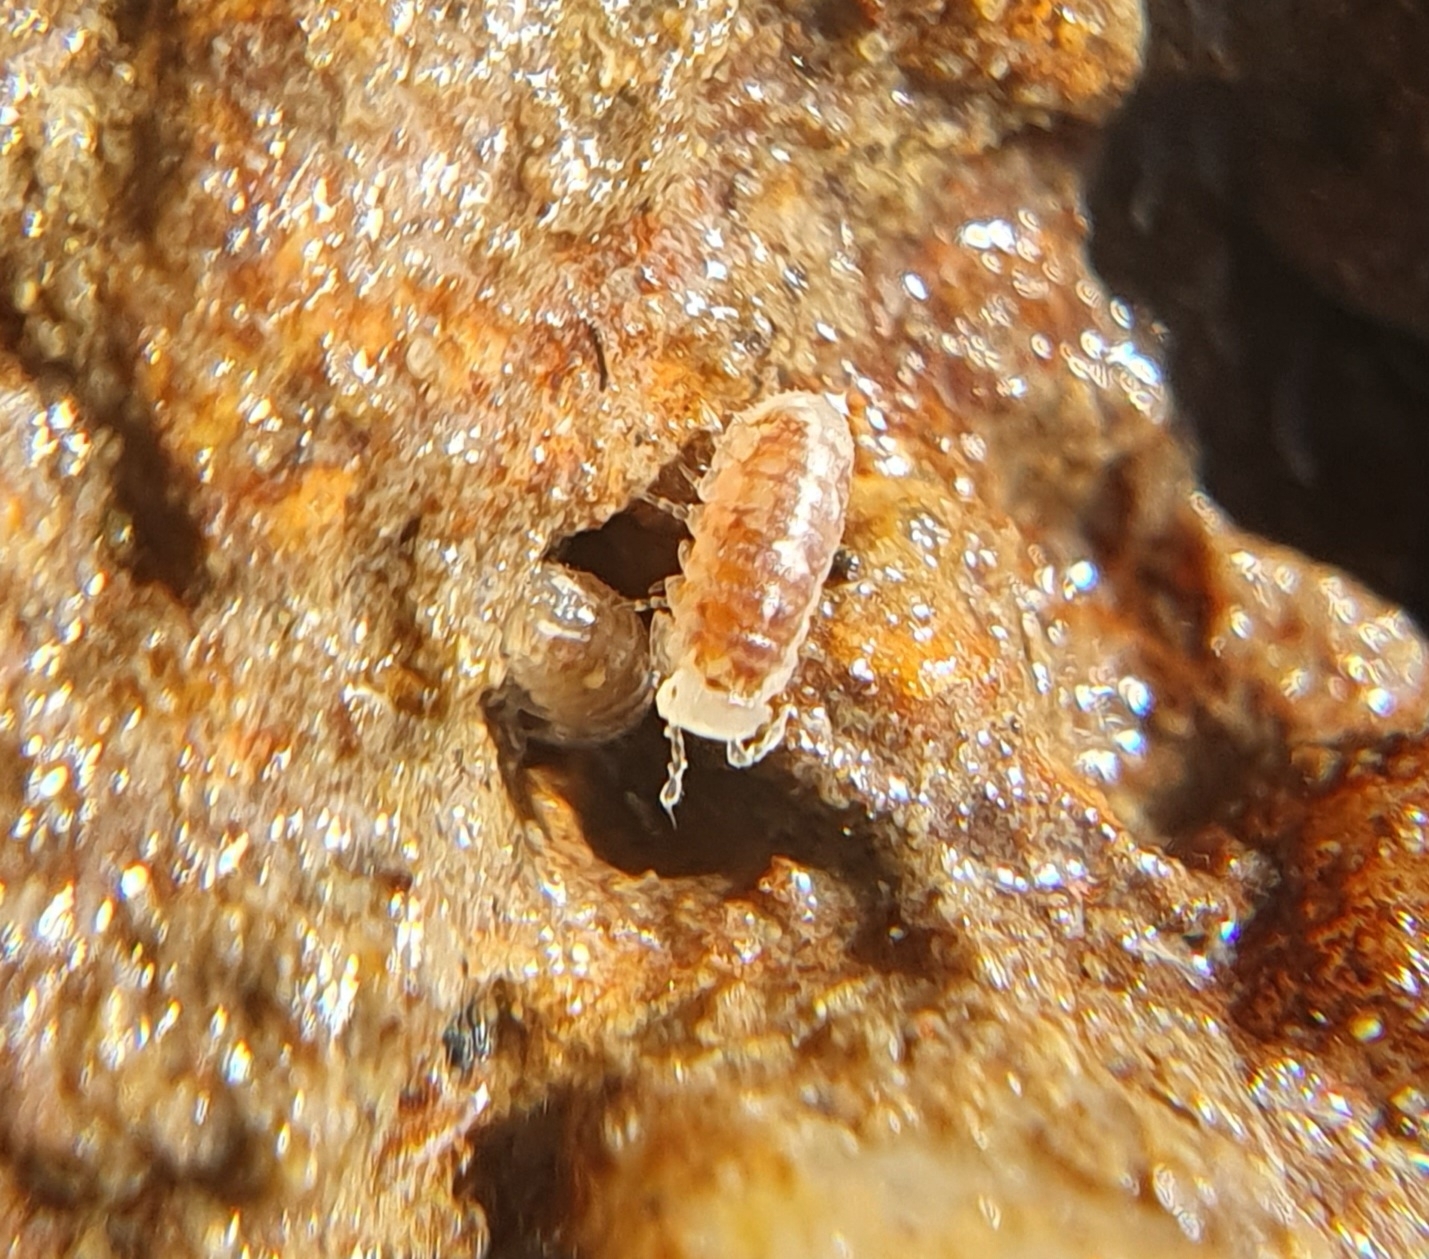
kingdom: Animalia
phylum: Arthropoda
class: Malacostraca
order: Isopoda
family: Trichoniscidae
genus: Buchnerillo
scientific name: Buchnerillo atlanticus
